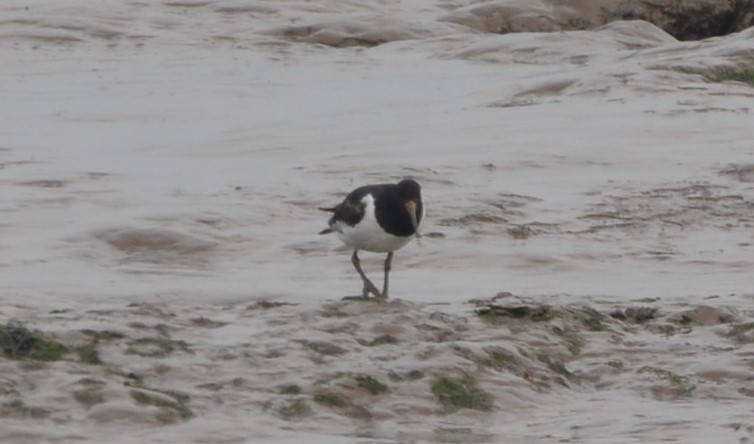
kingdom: Animalia
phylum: Chordata
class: Aves
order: Charadriiformes
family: Haematopodidae
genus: Haematopus
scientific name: Haematopus ostralegus
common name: Eurasian oystercatcher
